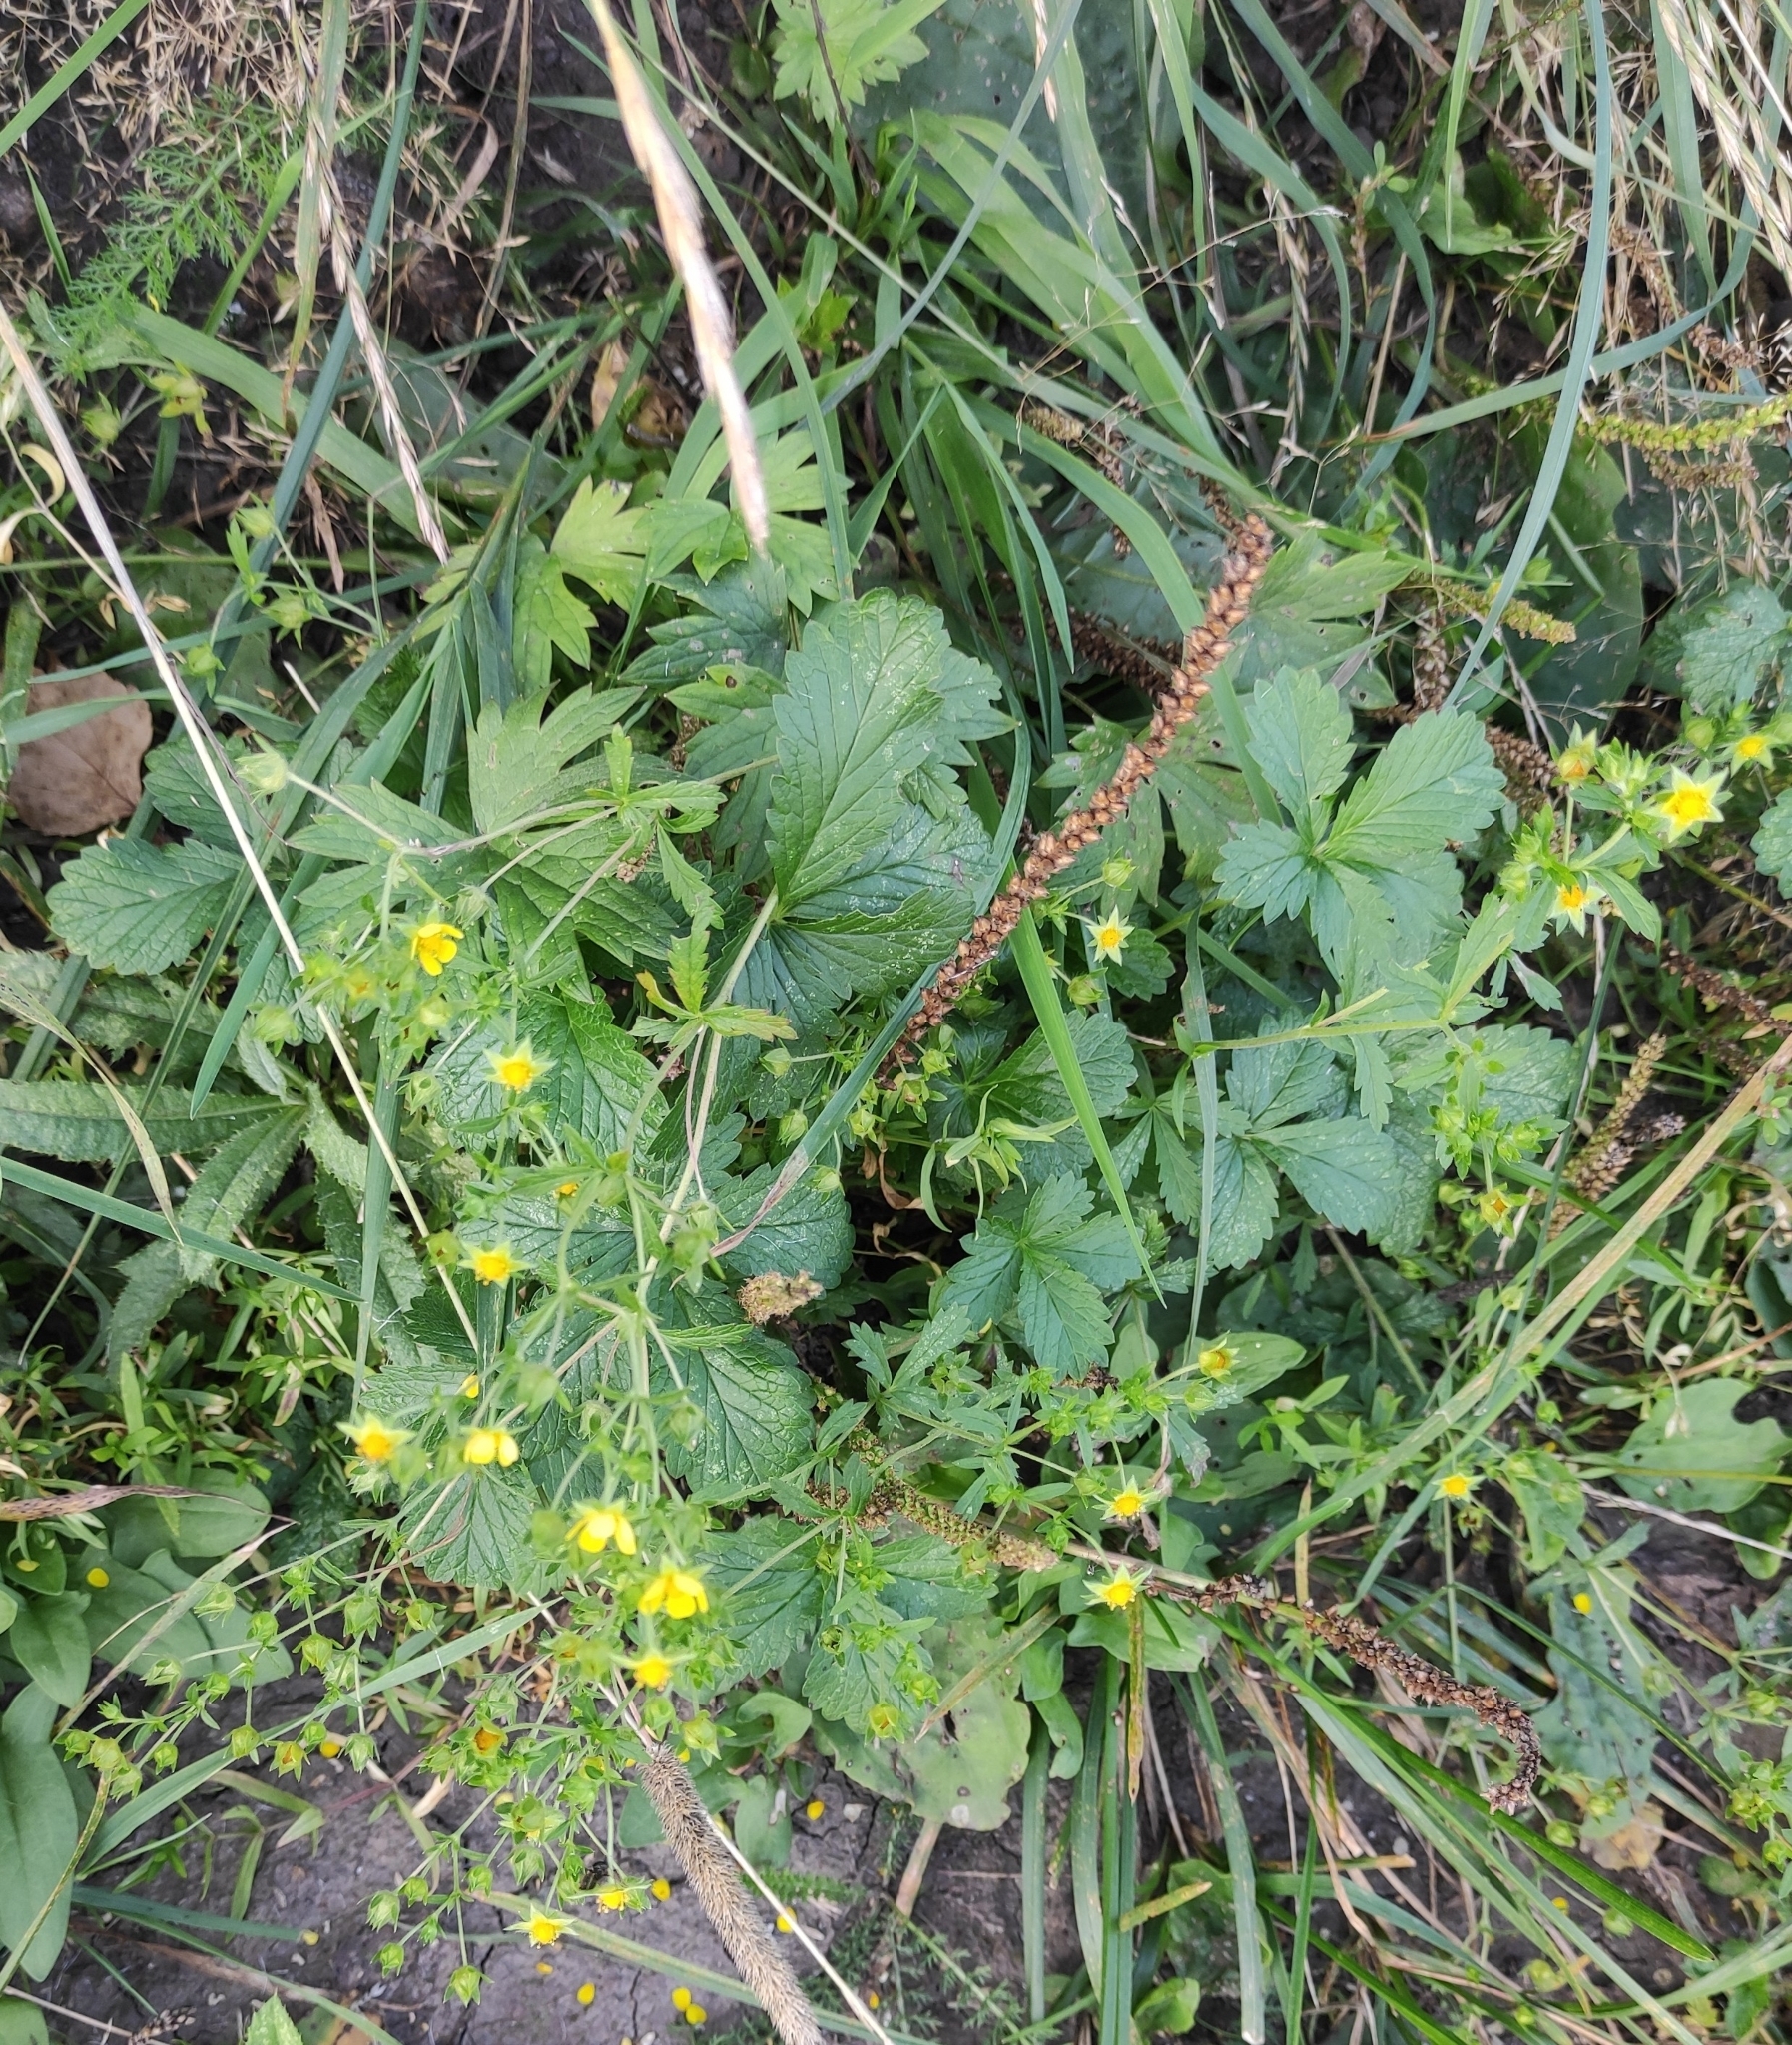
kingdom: Plantae
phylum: Tracheophyta
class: Magnoliopsida
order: Rosales
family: Rosaceae
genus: Potentilla
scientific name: Potentilla fragarioides
